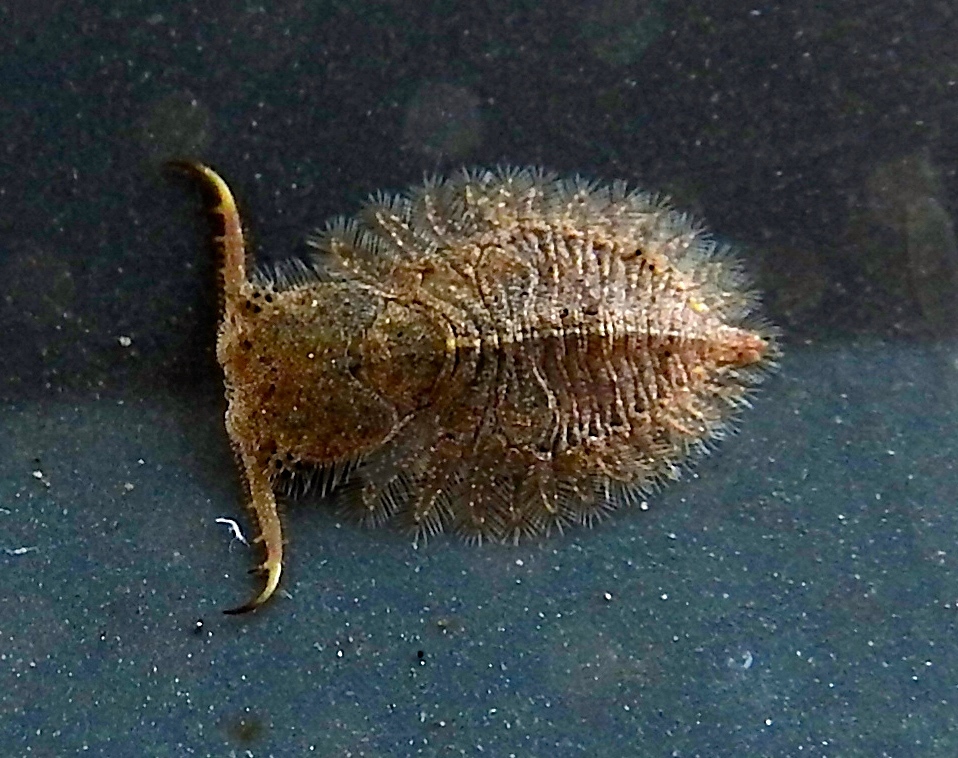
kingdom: Animalia
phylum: Arthropoda
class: Insecta
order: Neuroptera
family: Ascalaphidae
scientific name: Ascalaphidae
